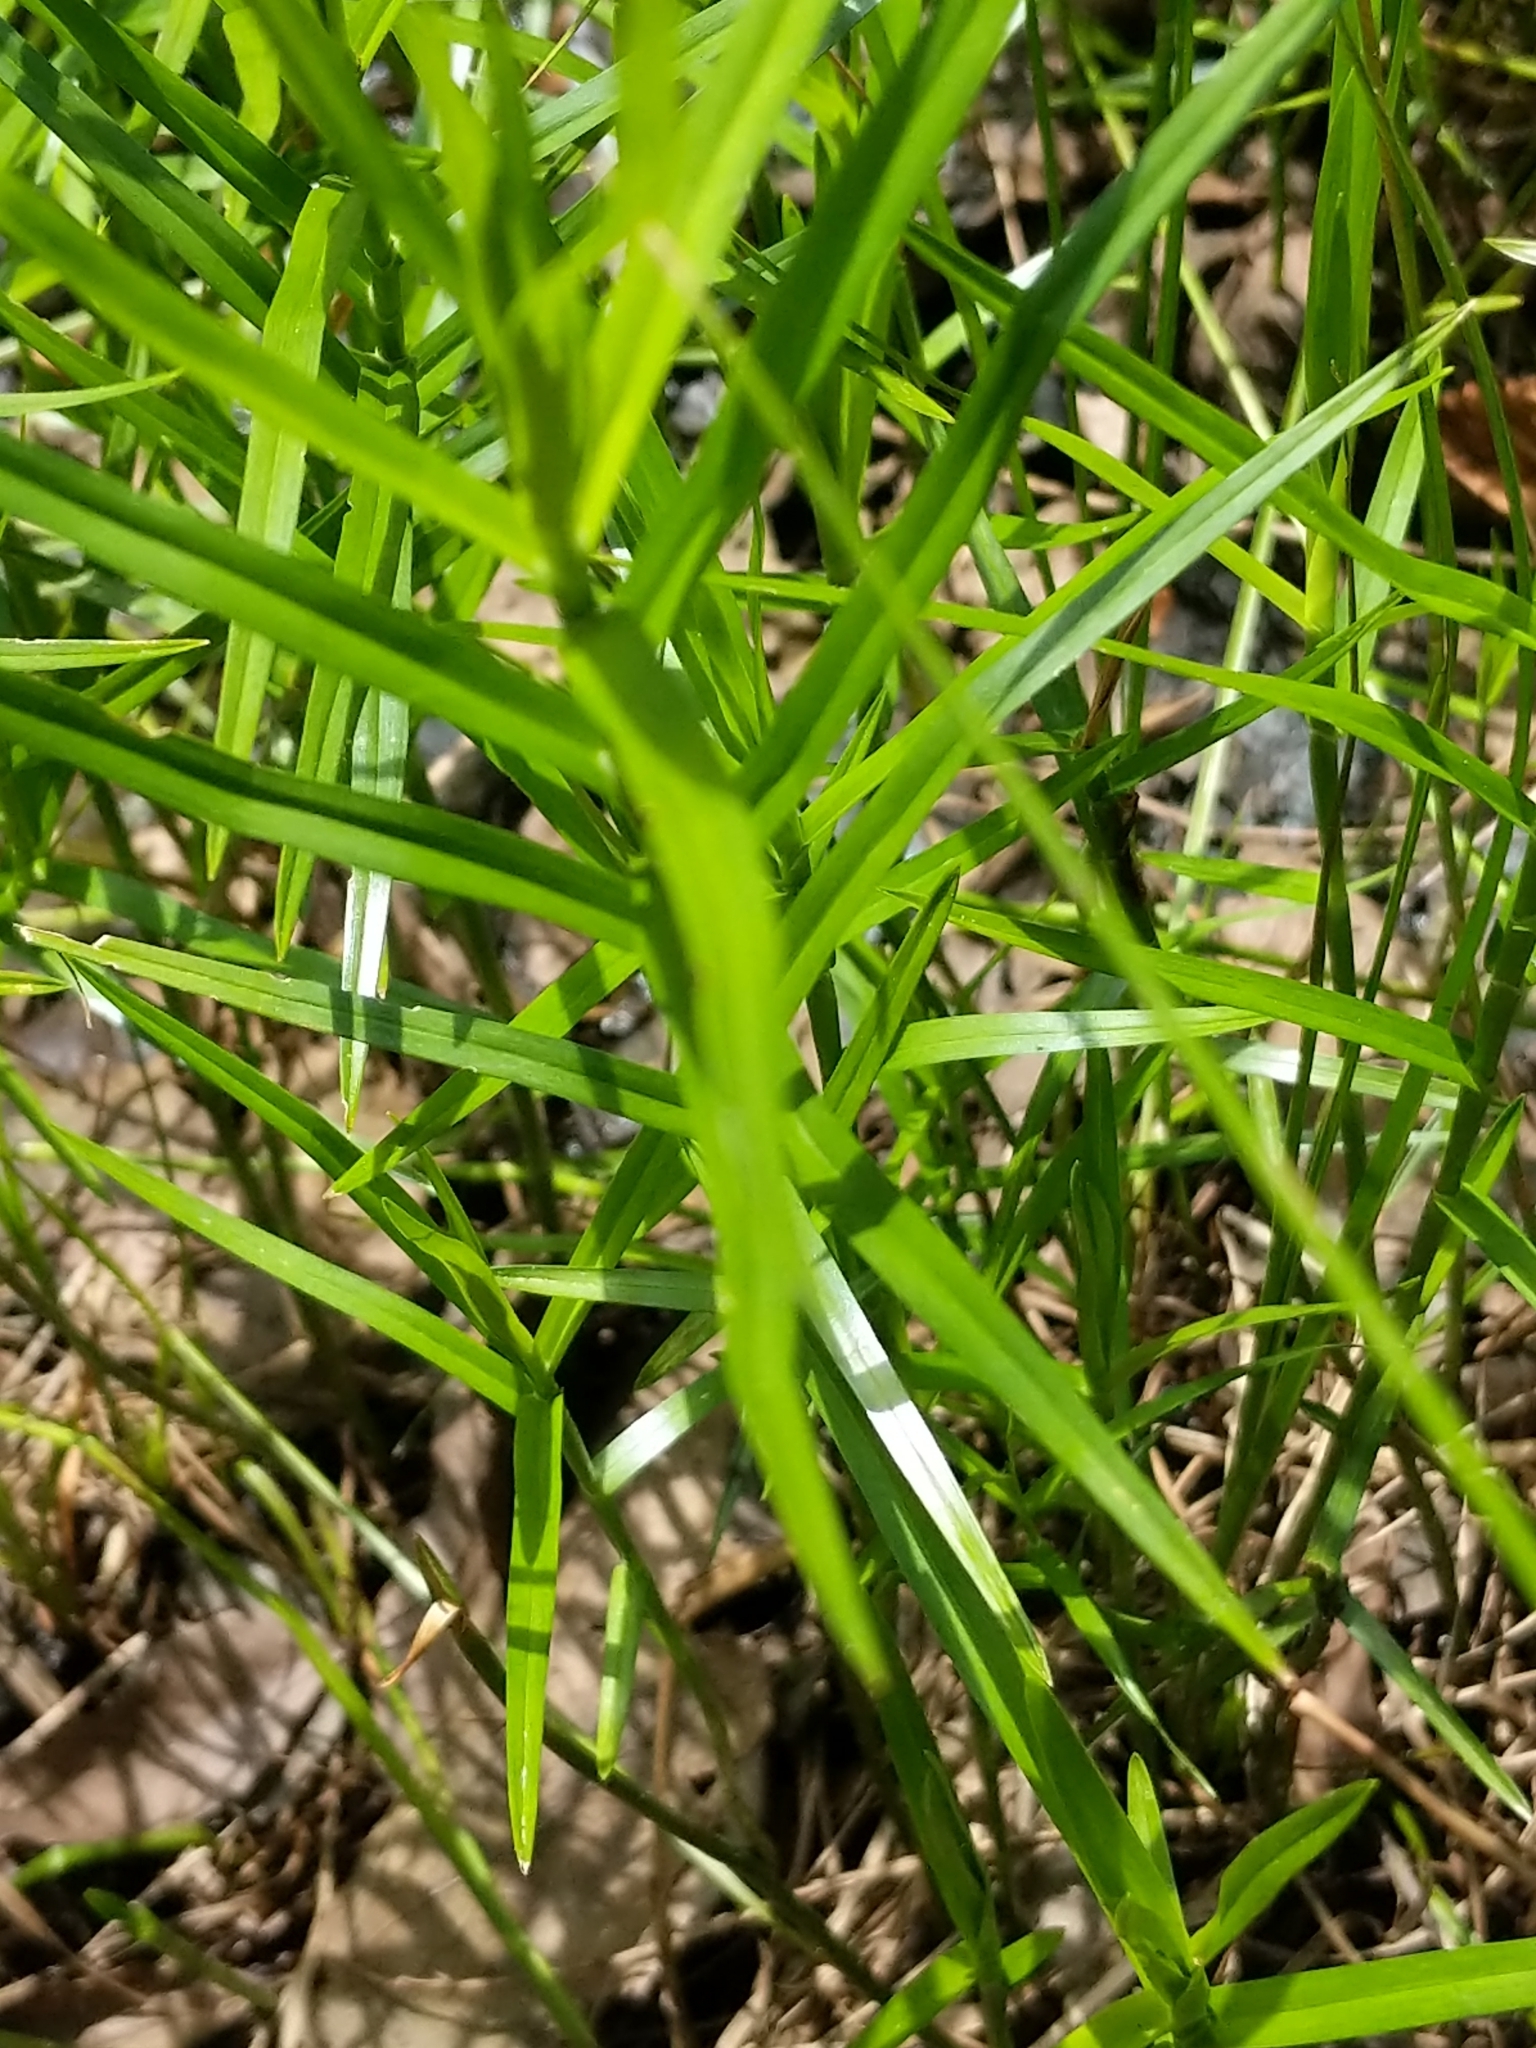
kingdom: Plantae
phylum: Tracheophyta
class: Liliopsida
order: Poales
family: Cyperaceae
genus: Dulichium
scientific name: Dulichium arundinaceum
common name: Three-way sedge
